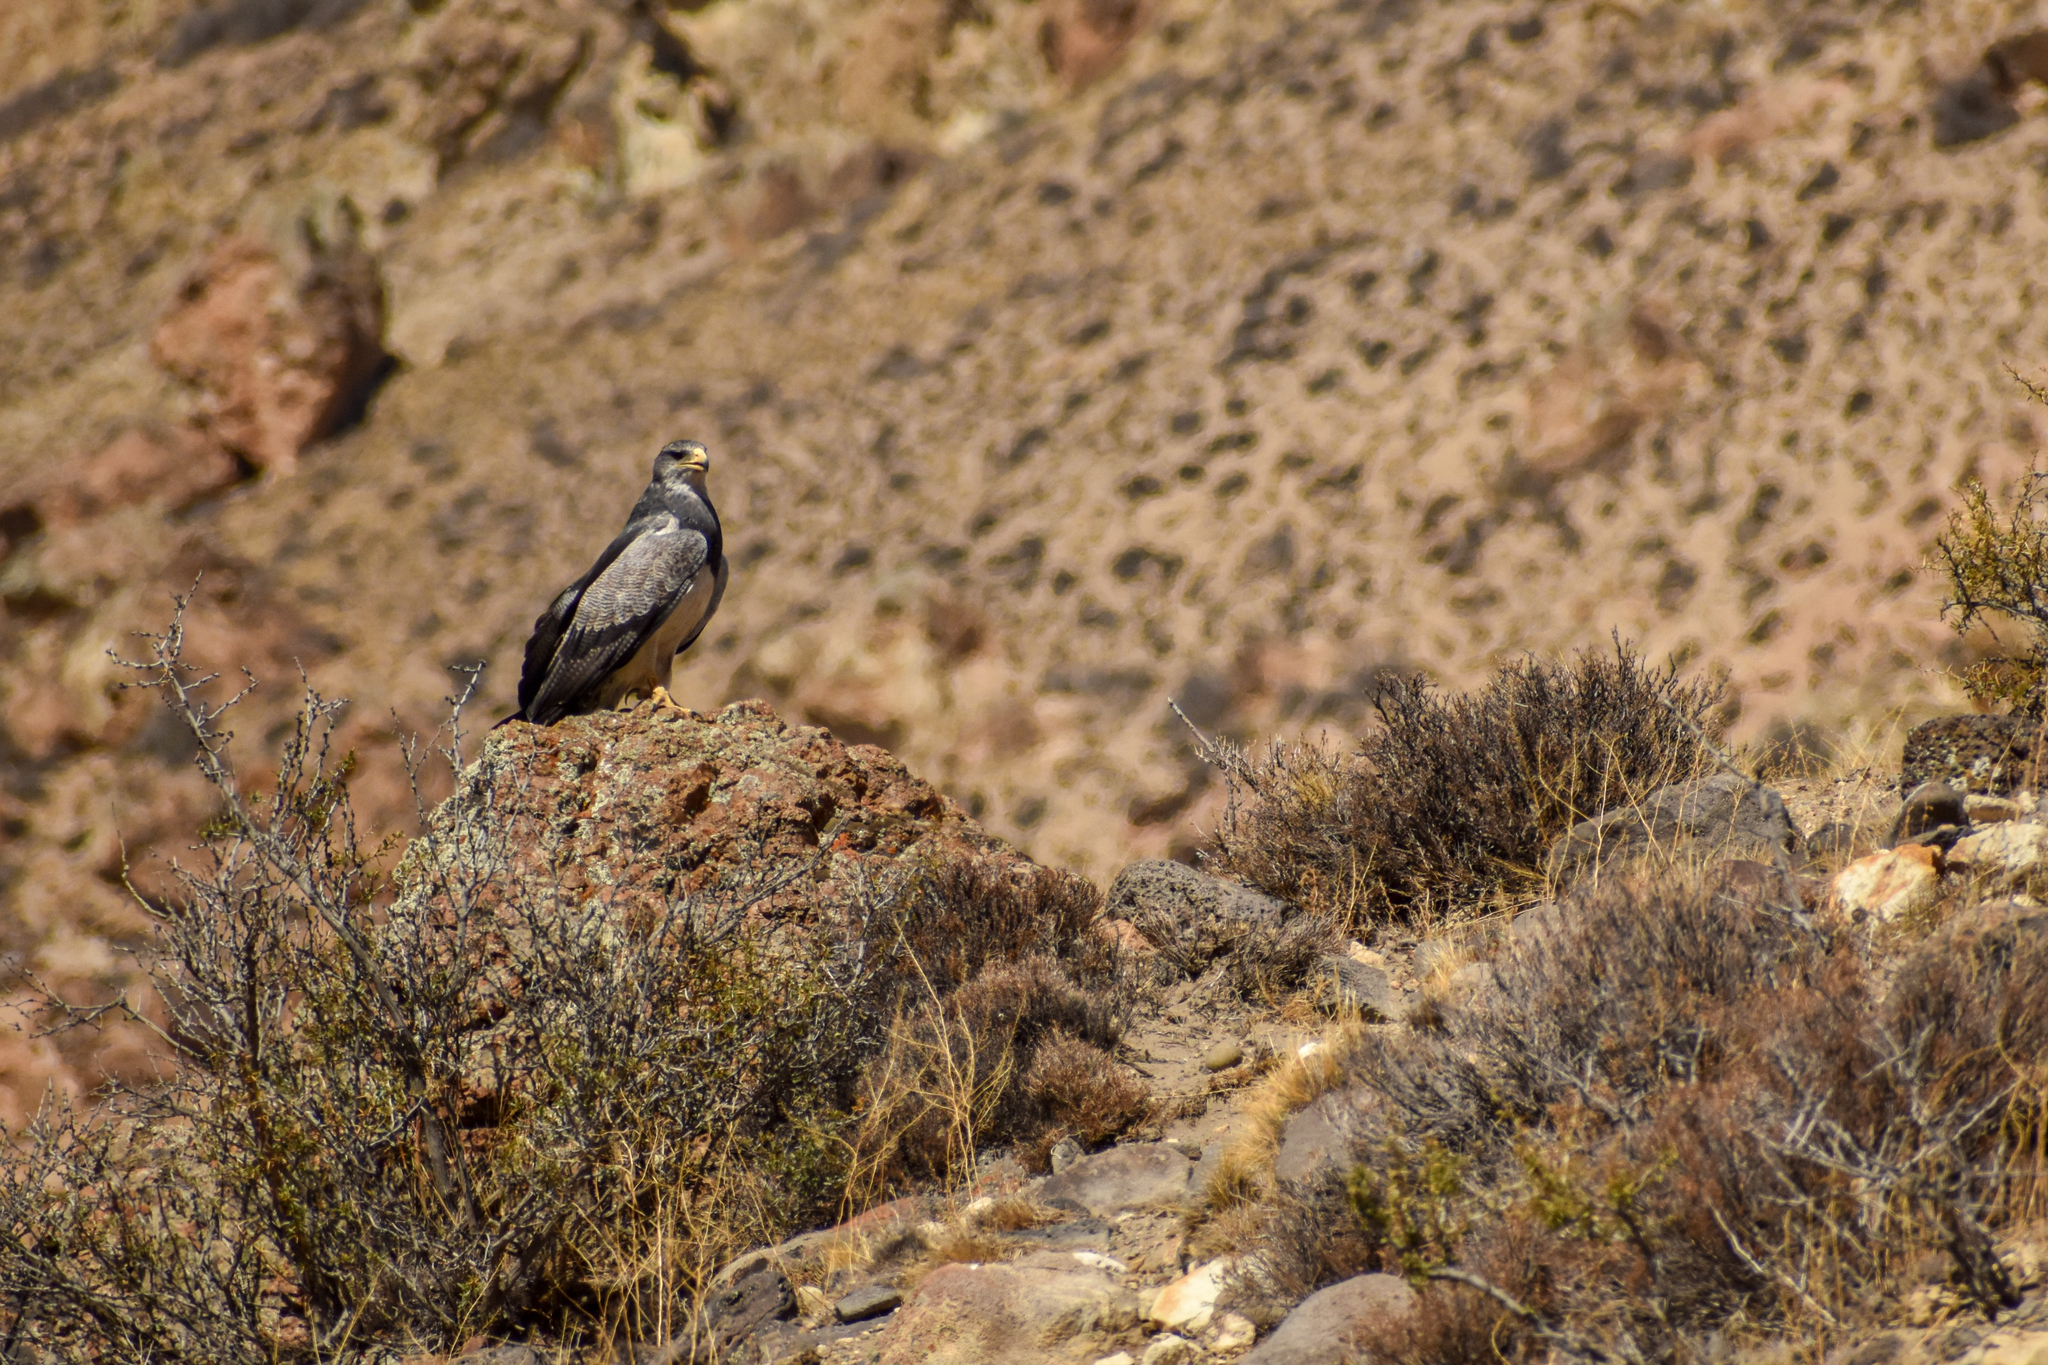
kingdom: Animalia
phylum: Chordata
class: Aves
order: Accipitriformes
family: Accipitridae
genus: Geranoaetus
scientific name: Geranoaetus melanoleucus
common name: Black-chested buzzard-eagle
